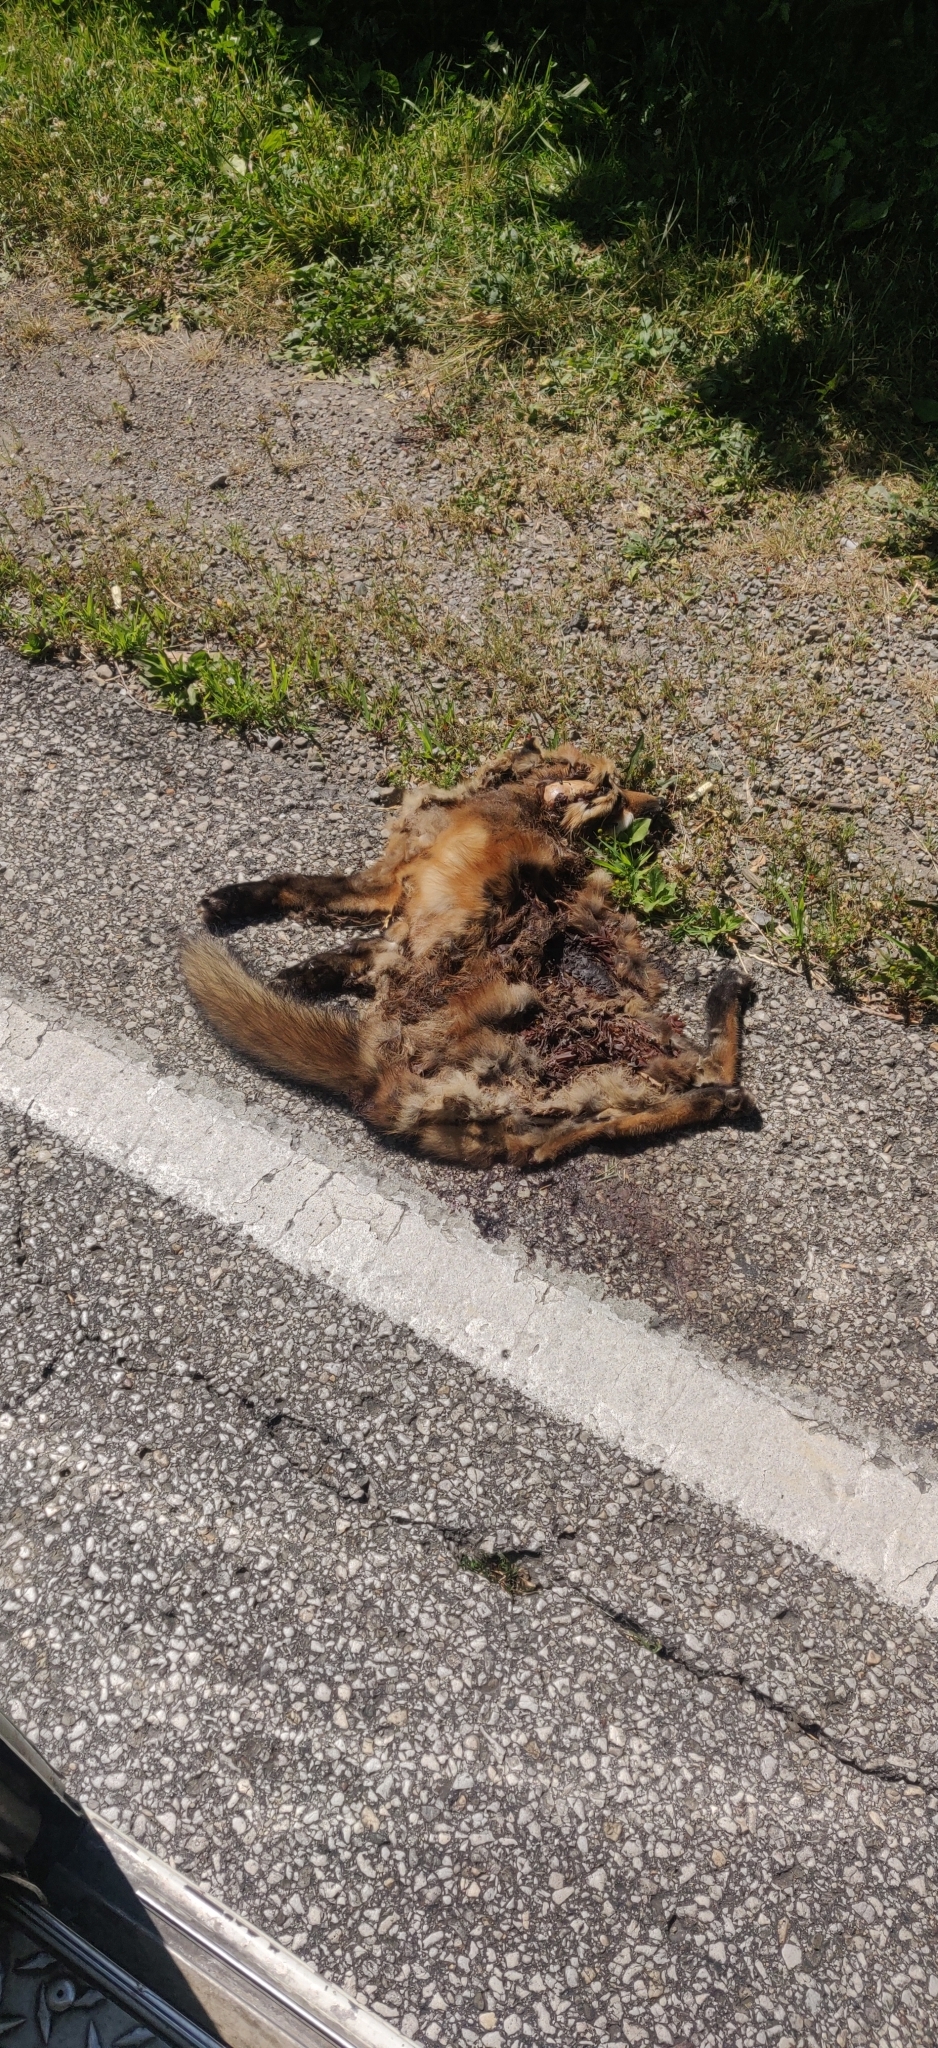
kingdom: Animalia
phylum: Chordata
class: Mammalia
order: Carnivora
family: Canidae
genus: Vulpes
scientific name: Vulpes vulpes
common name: Red fox
